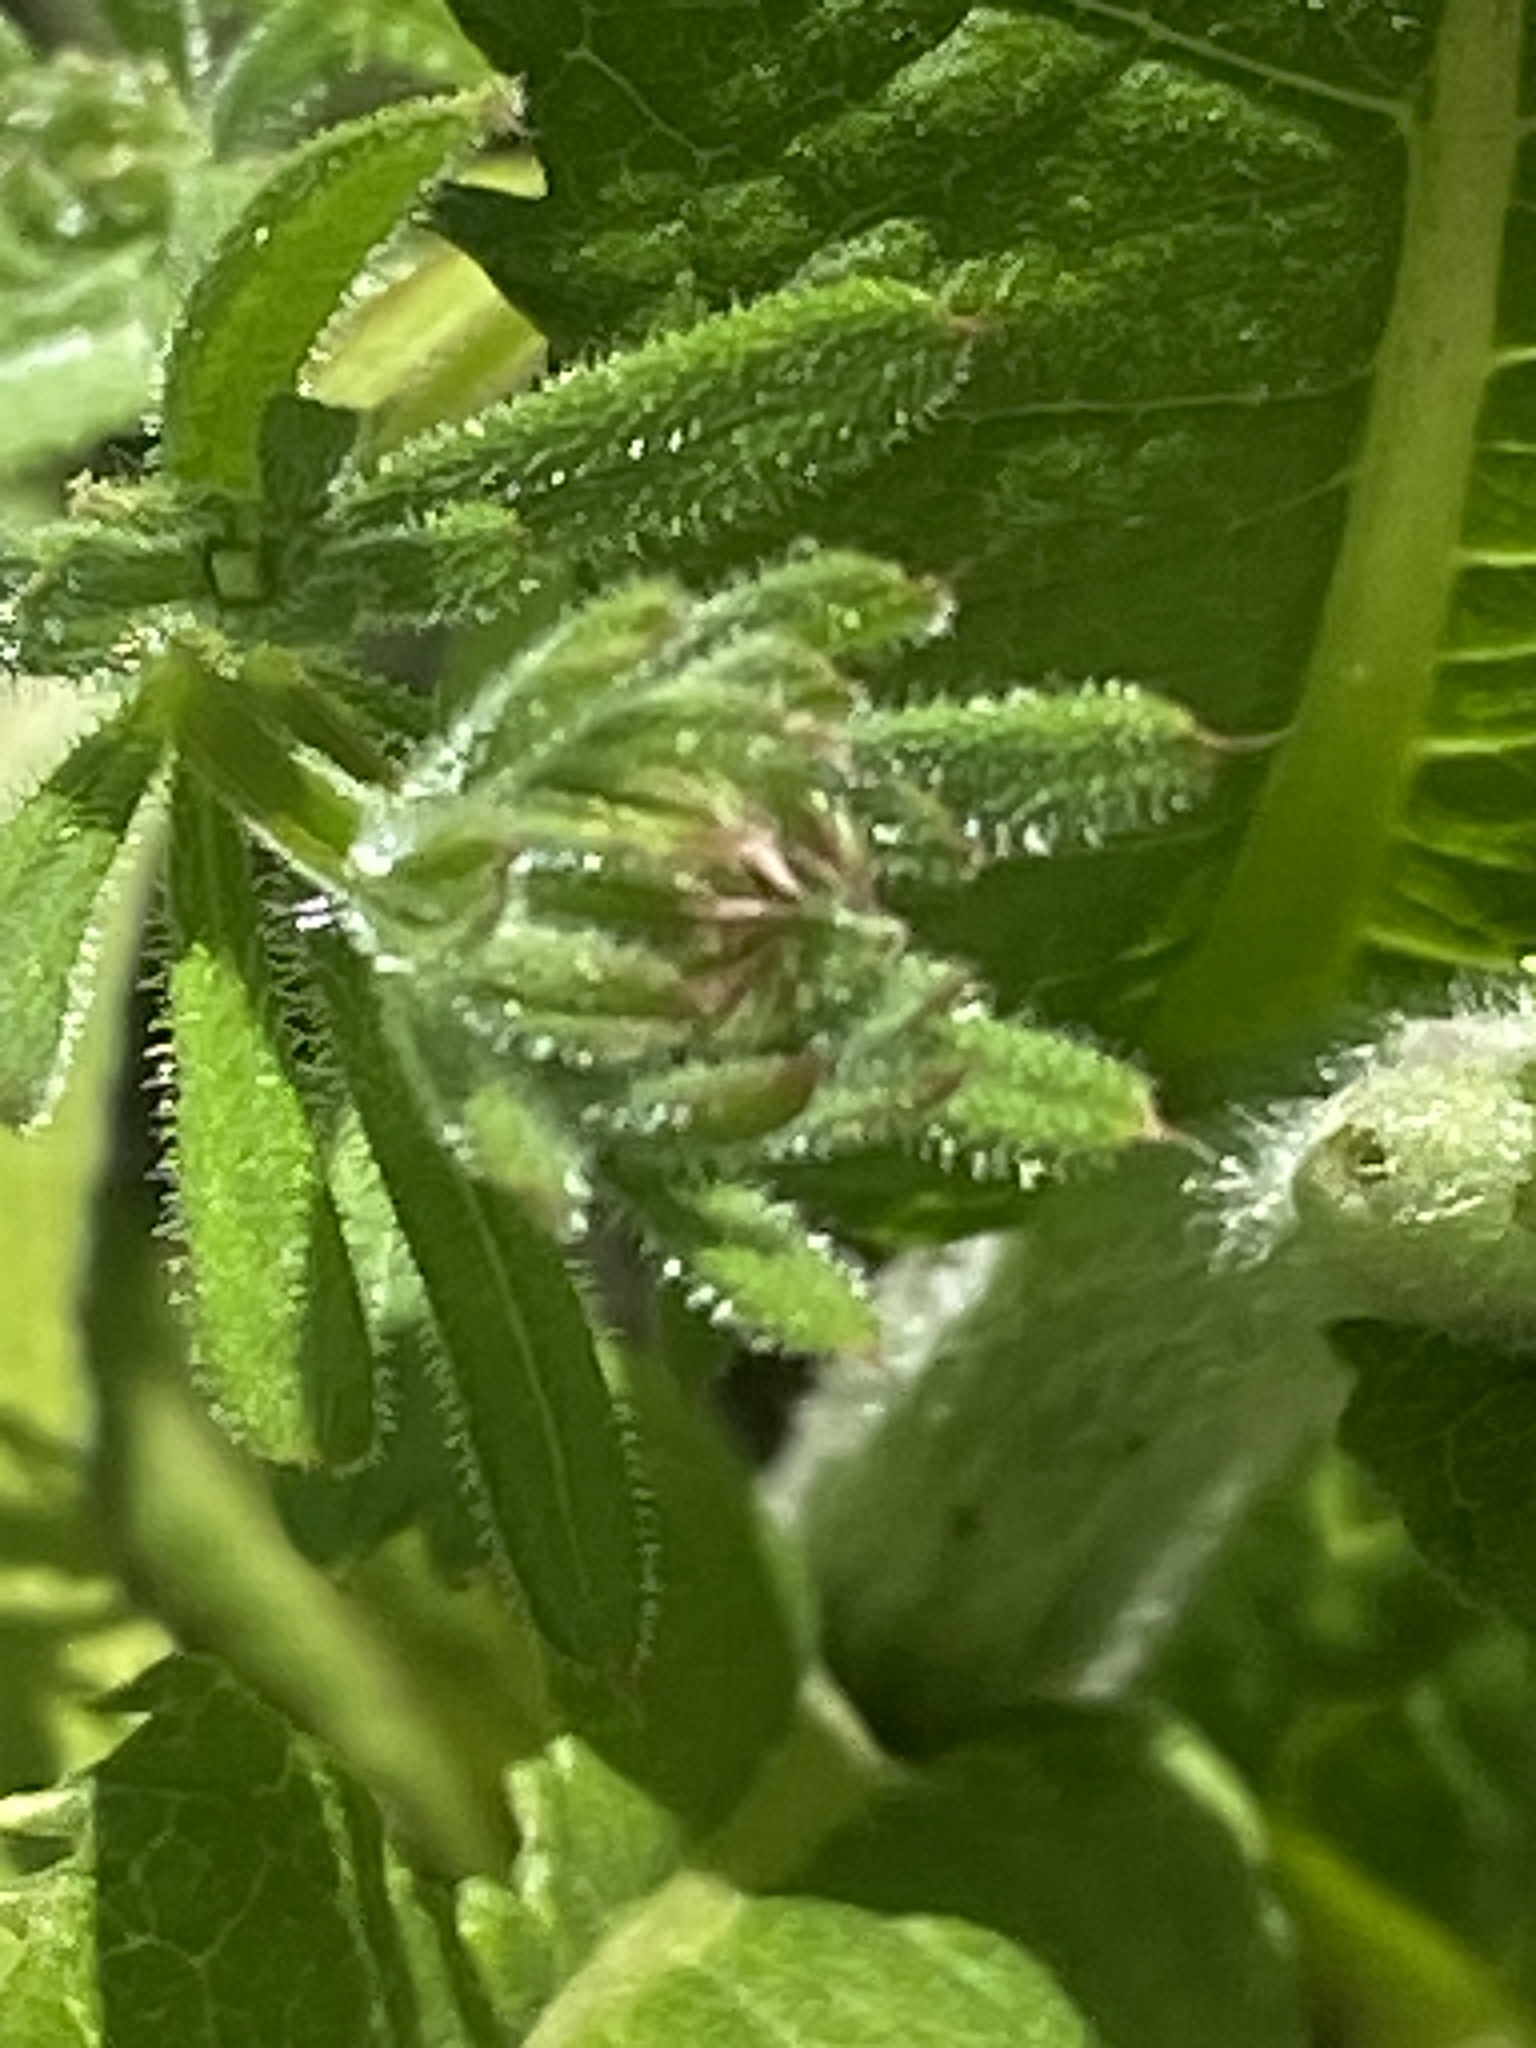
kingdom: Plantae
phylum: Tracheophyta
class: Magnoliopsida
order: Asterales
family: Asteraceae
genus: Inula
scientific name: Inula helenium
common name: Elecampane
